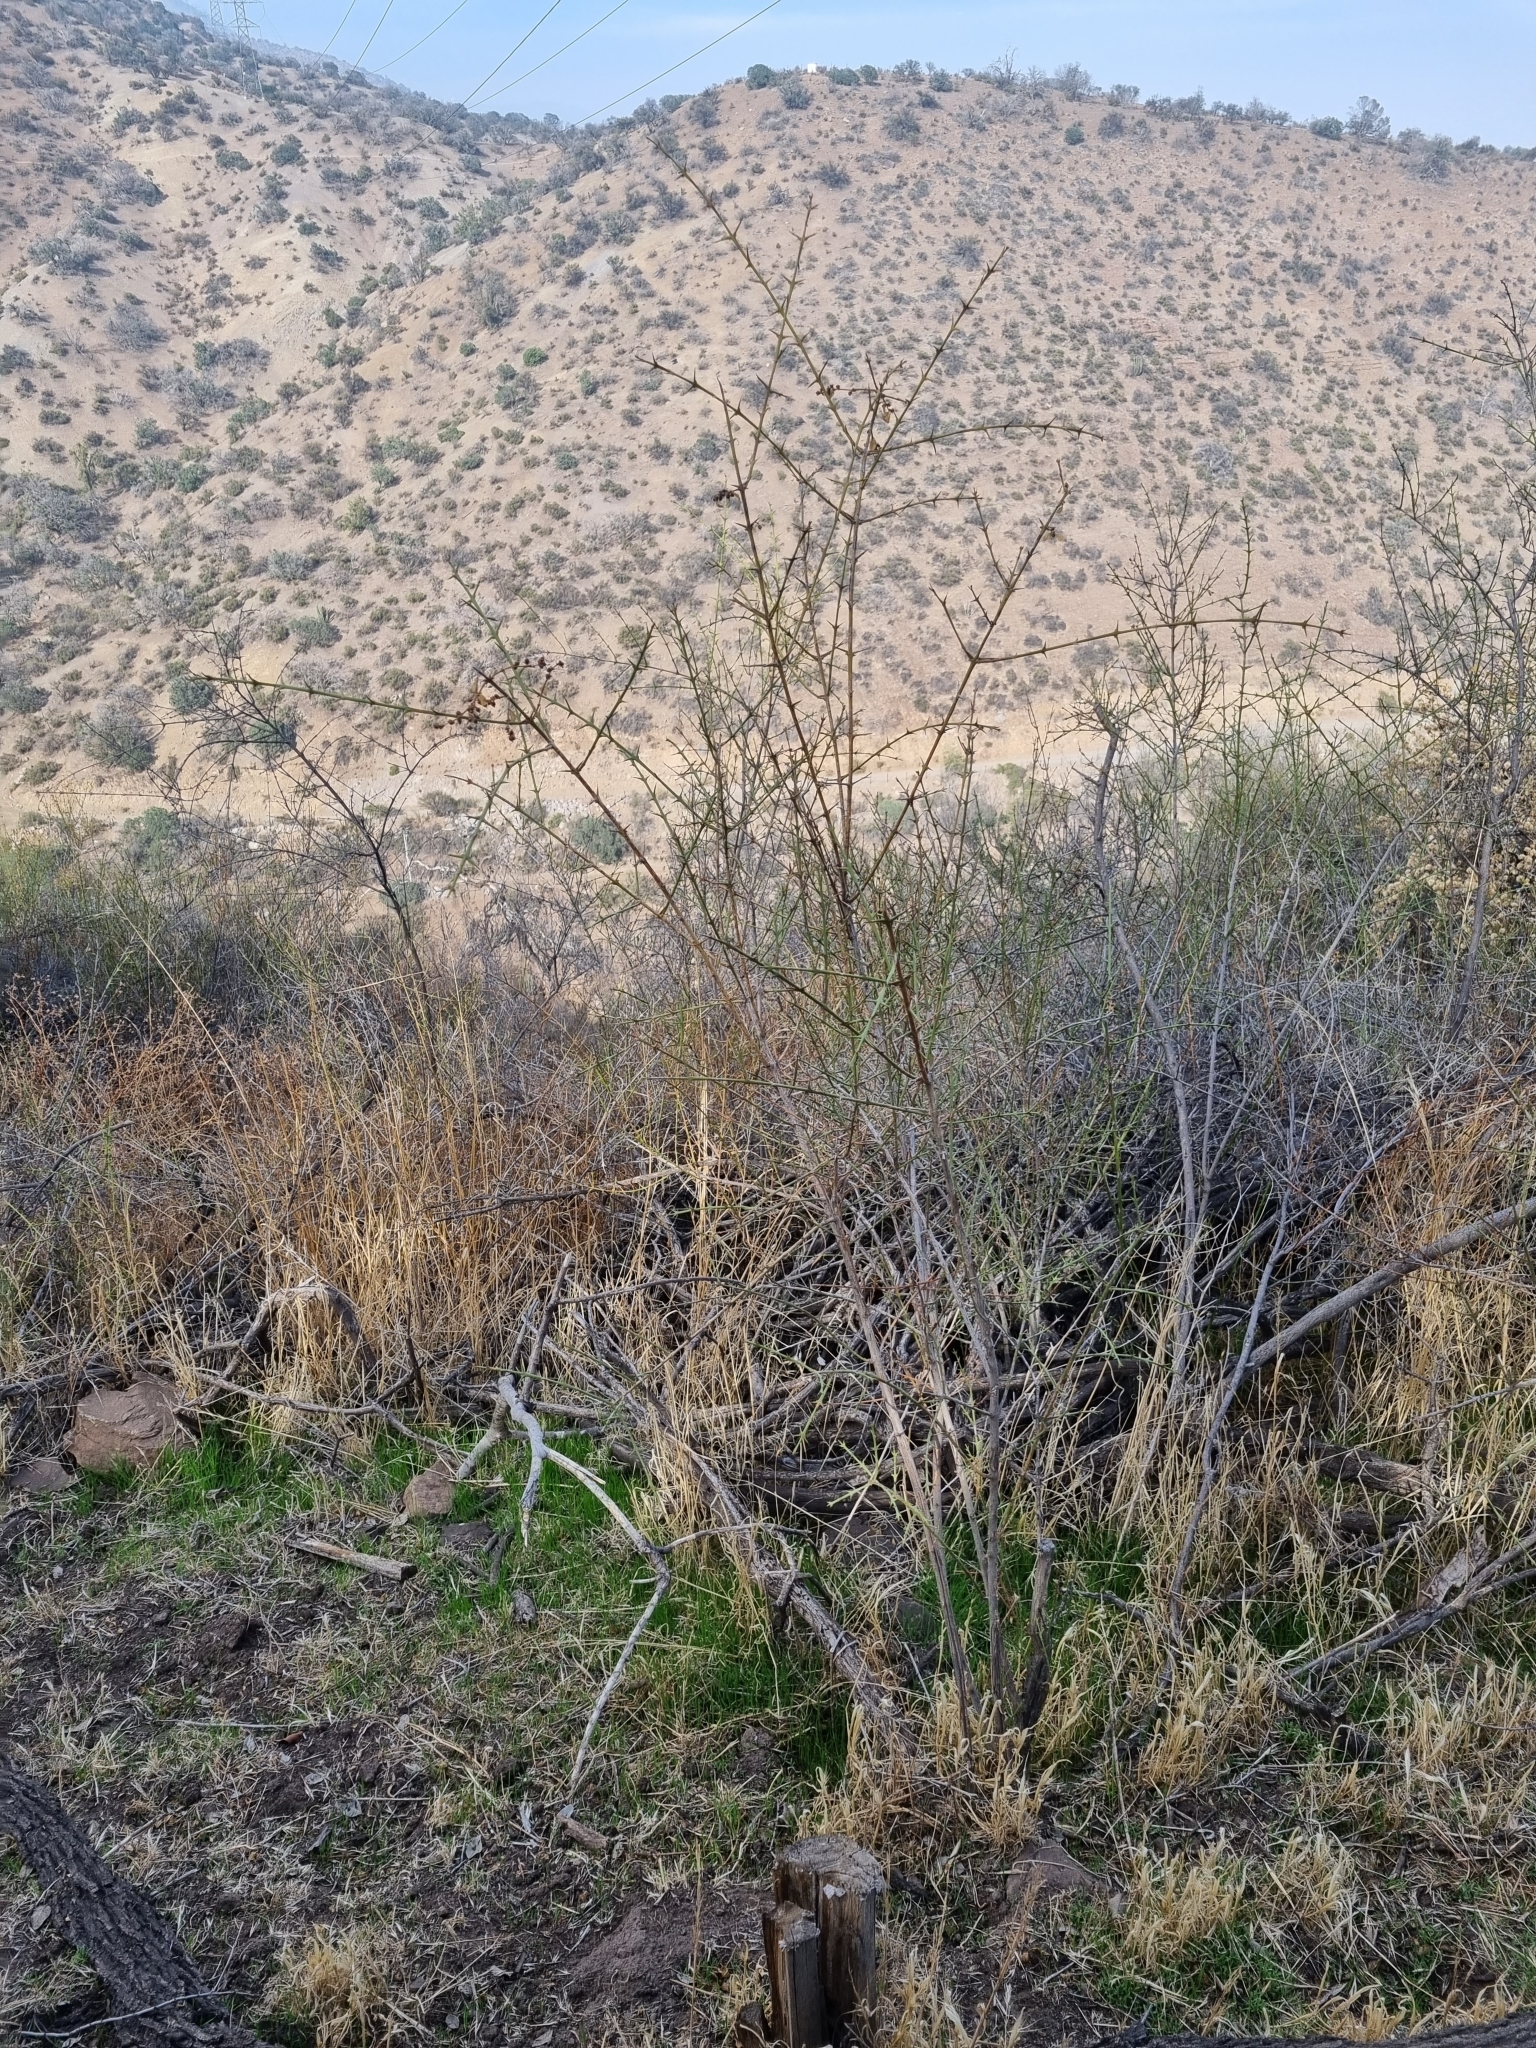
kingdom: Plantae
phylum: Tracheophyta
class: Magnoliopsida
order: Rosales
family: Rhamnaceae
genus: Retanilla
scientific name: Retanilla trinervia
